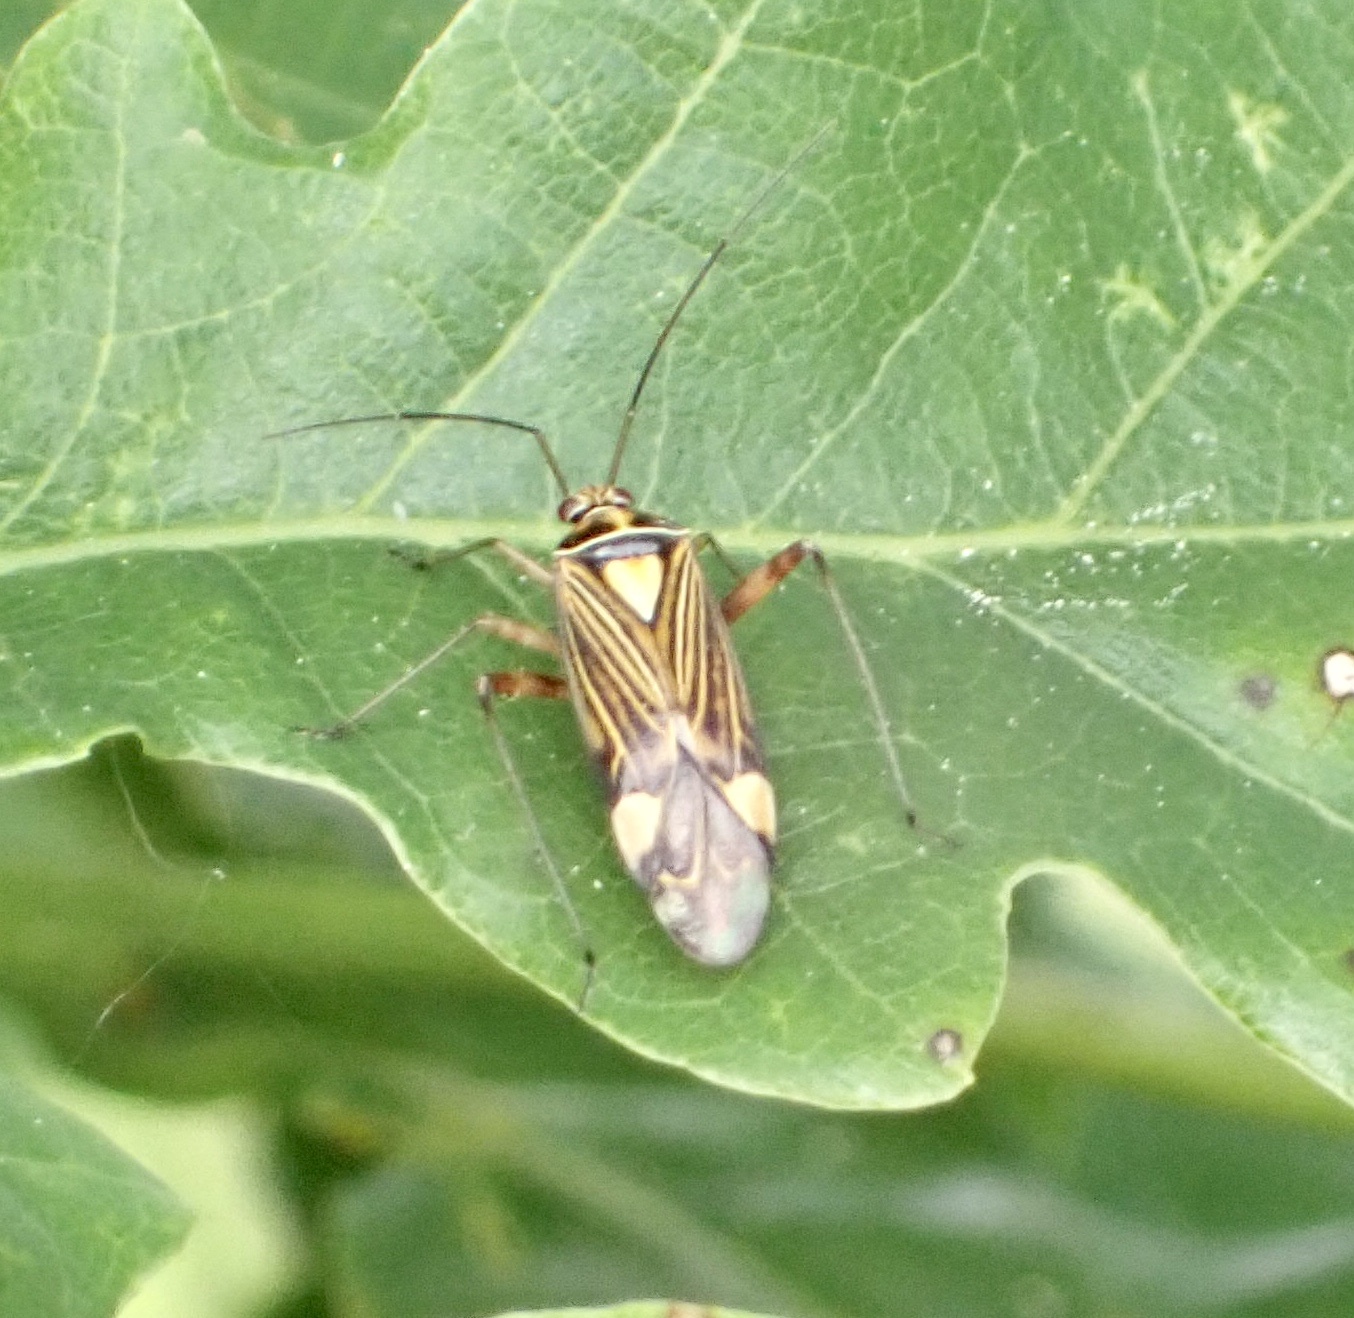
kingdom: Animalia
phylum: Arthropoda
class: Insecta
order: Hemiptera
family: Miridae
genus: Rhabdomiris
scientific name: Rhabdomiris striatellus
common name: Plant bug
